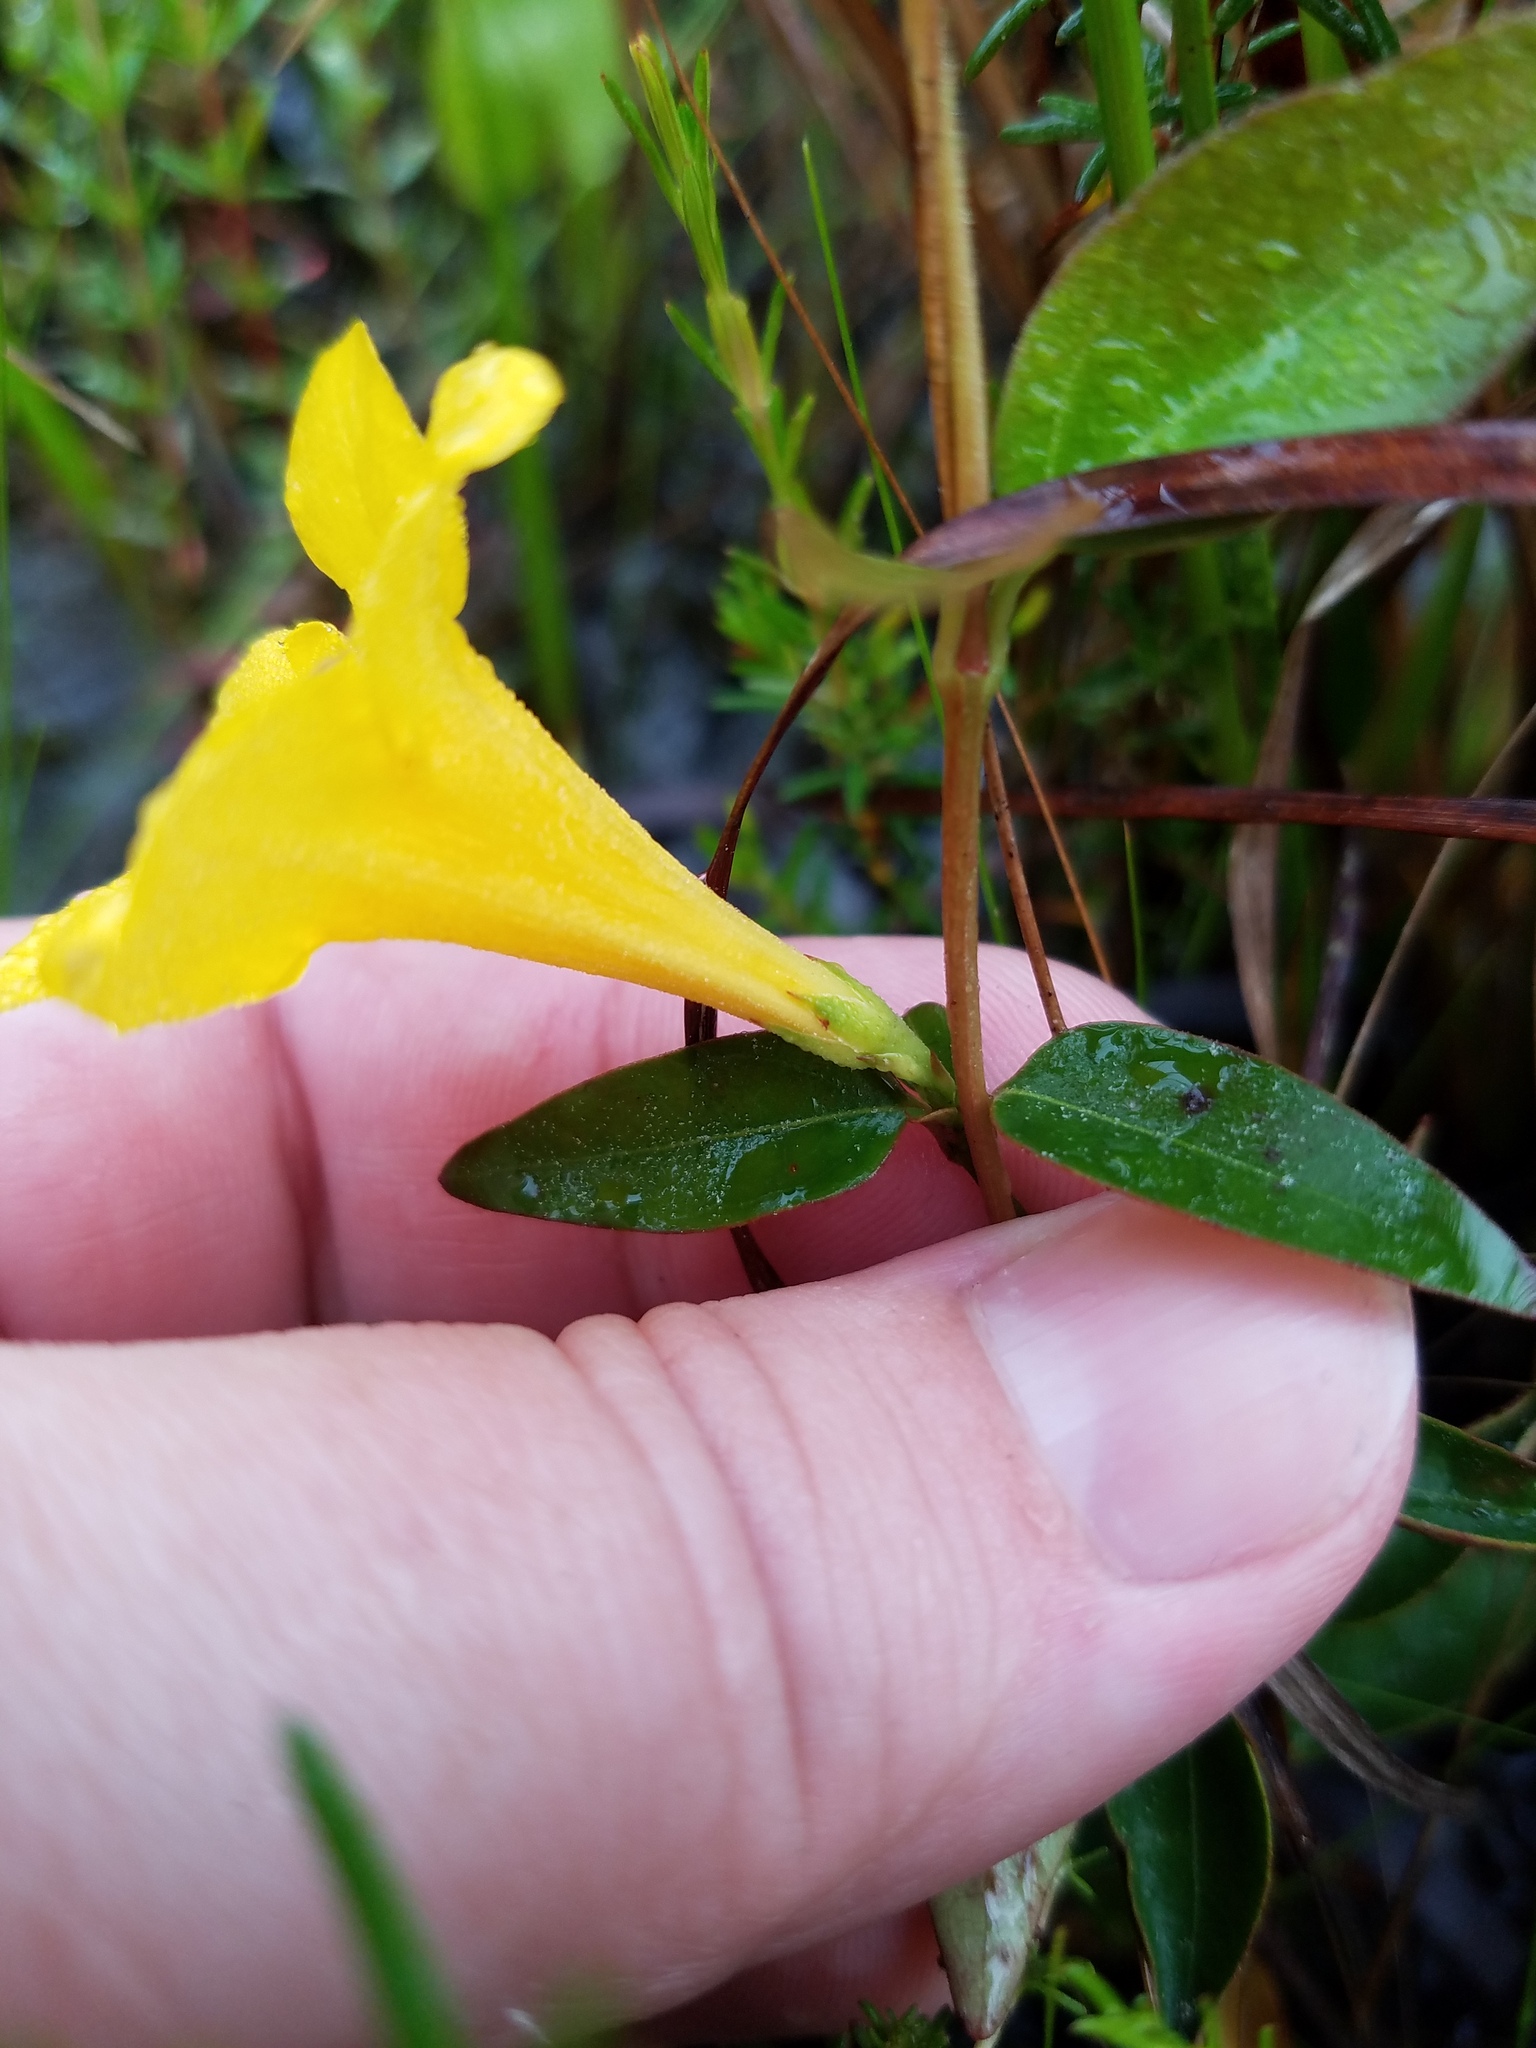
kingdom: Plantae
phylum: Tracheophyta
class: Magnoliopsida
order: Gentianales
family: Gelsemiaceae
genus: Gelsemium
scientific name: Gelsemium rankinii
